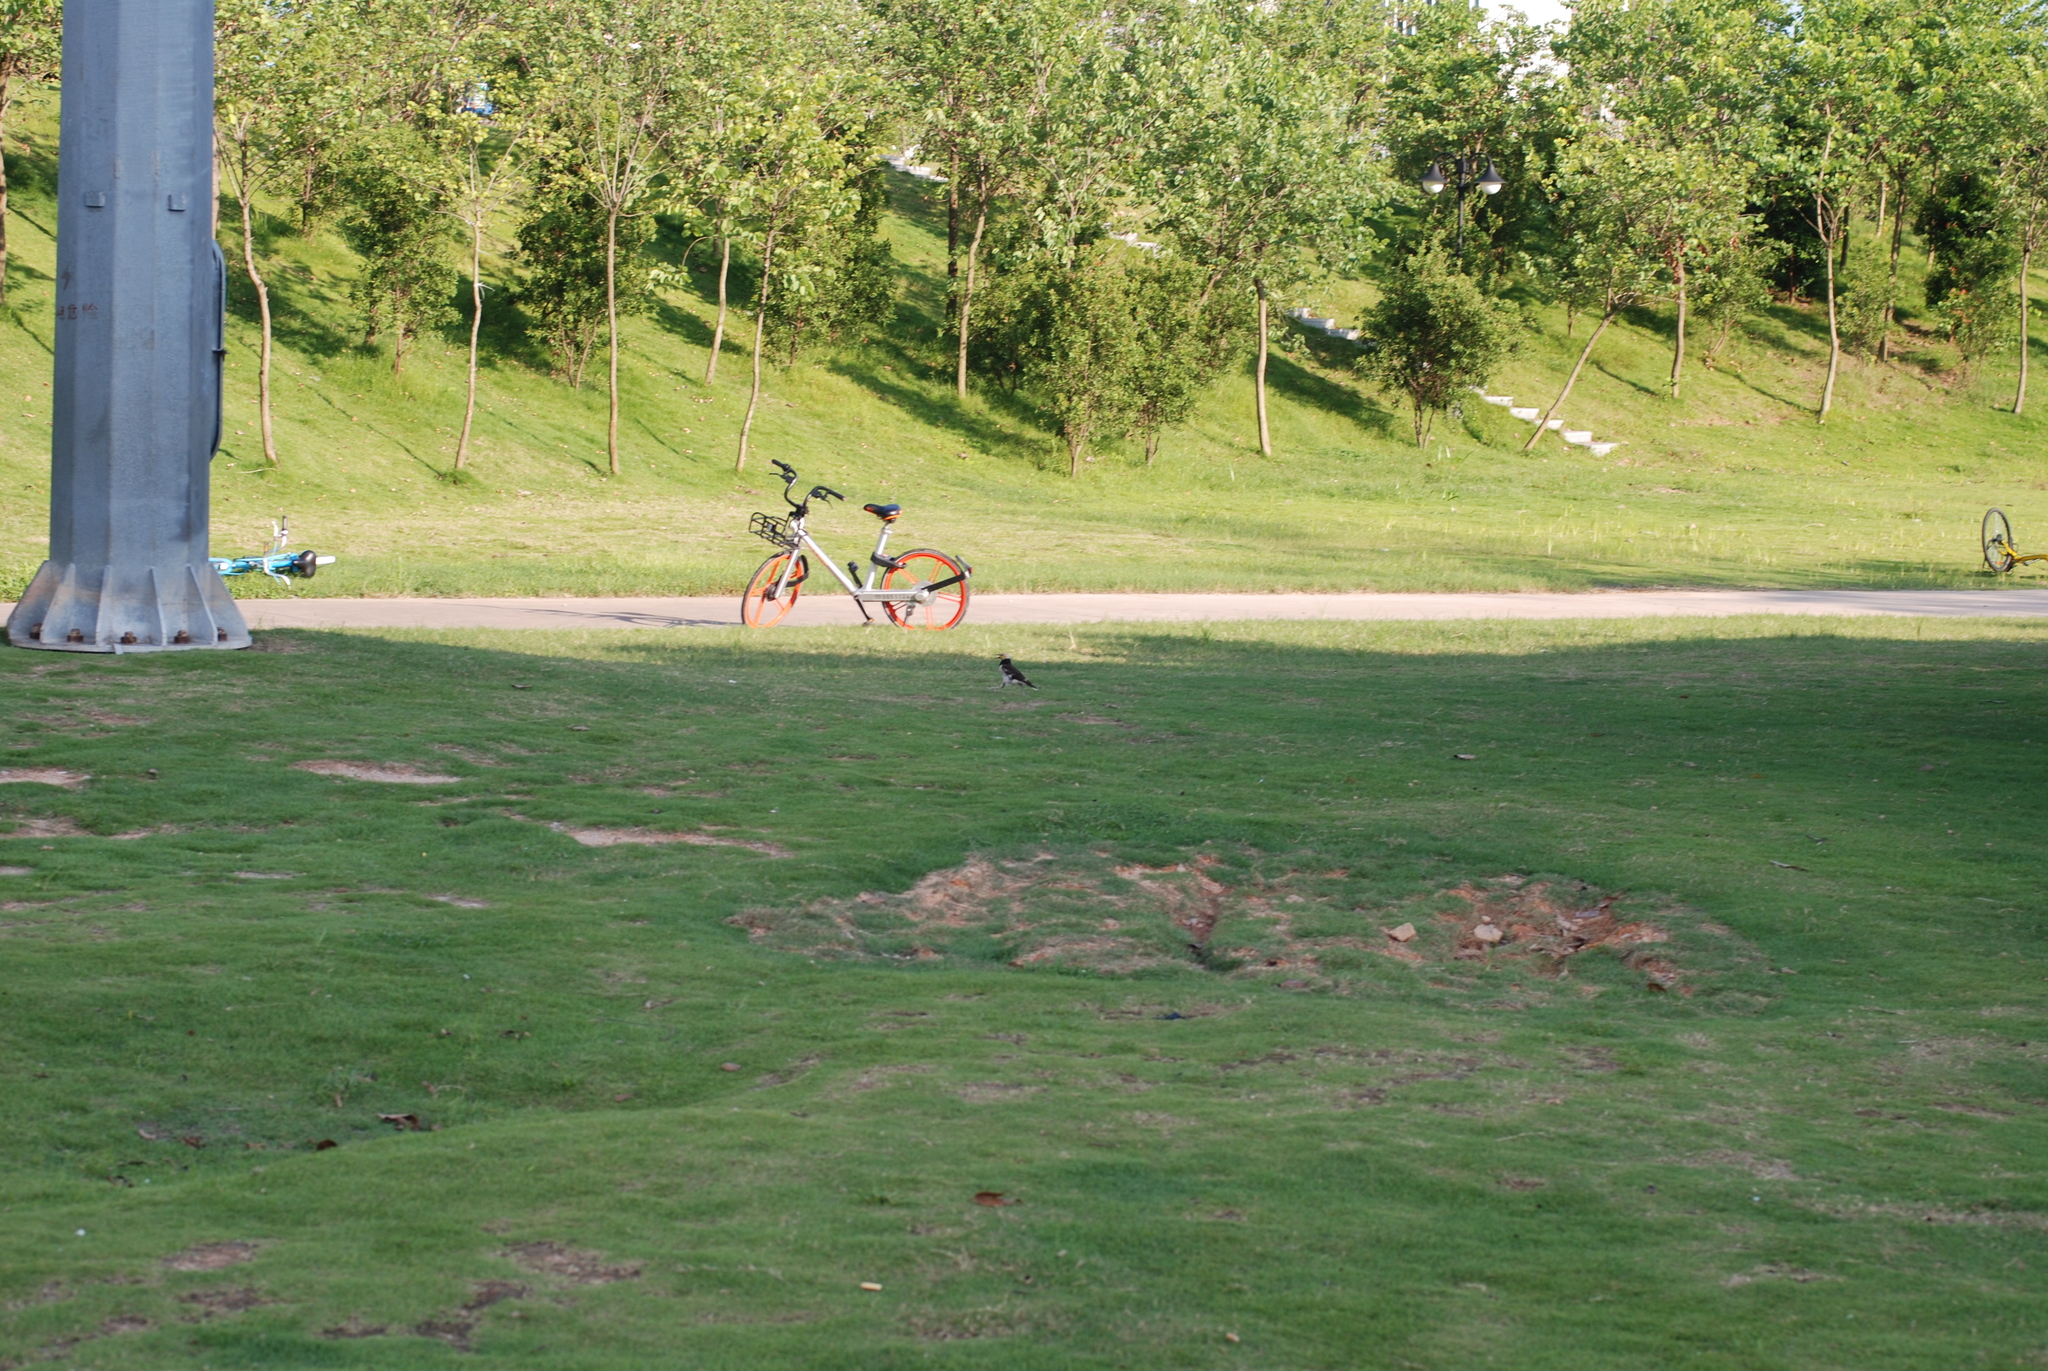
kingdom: Animalia
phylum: Chordata
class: Aves
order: Passeriformes
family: Sturnidae
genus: Gracupica
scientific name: Gracupica nigricollis
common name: Black-collared starling
